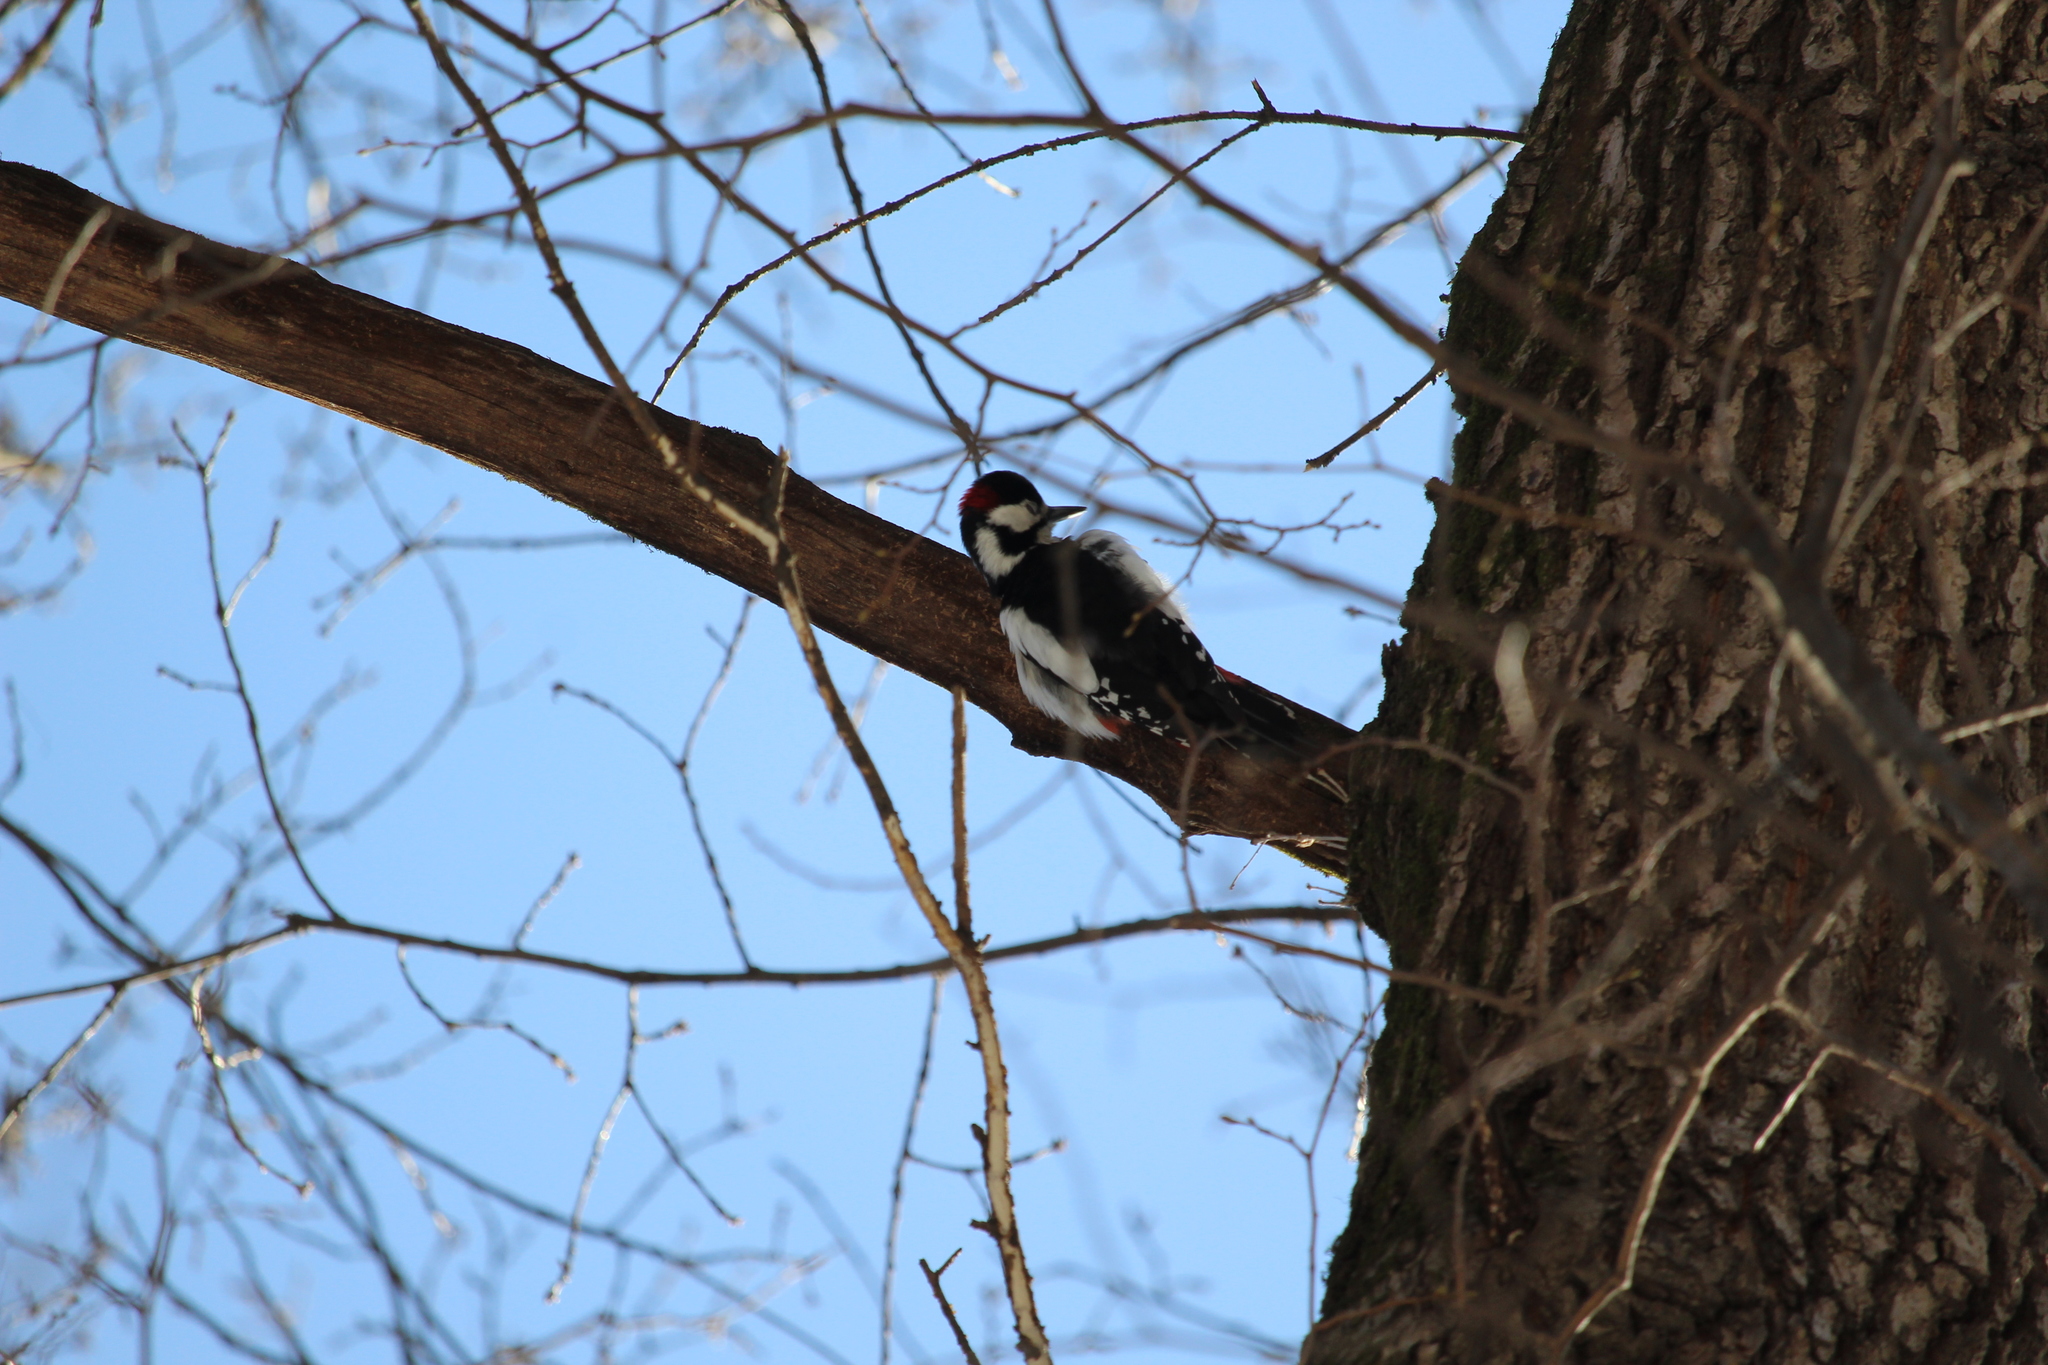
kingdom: Animalia
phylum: Chordata
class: Aves
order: Piciformes
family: Picidae
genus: Dendrocopos
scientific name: Dendrocopos major
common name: Great spotted woodpecker
